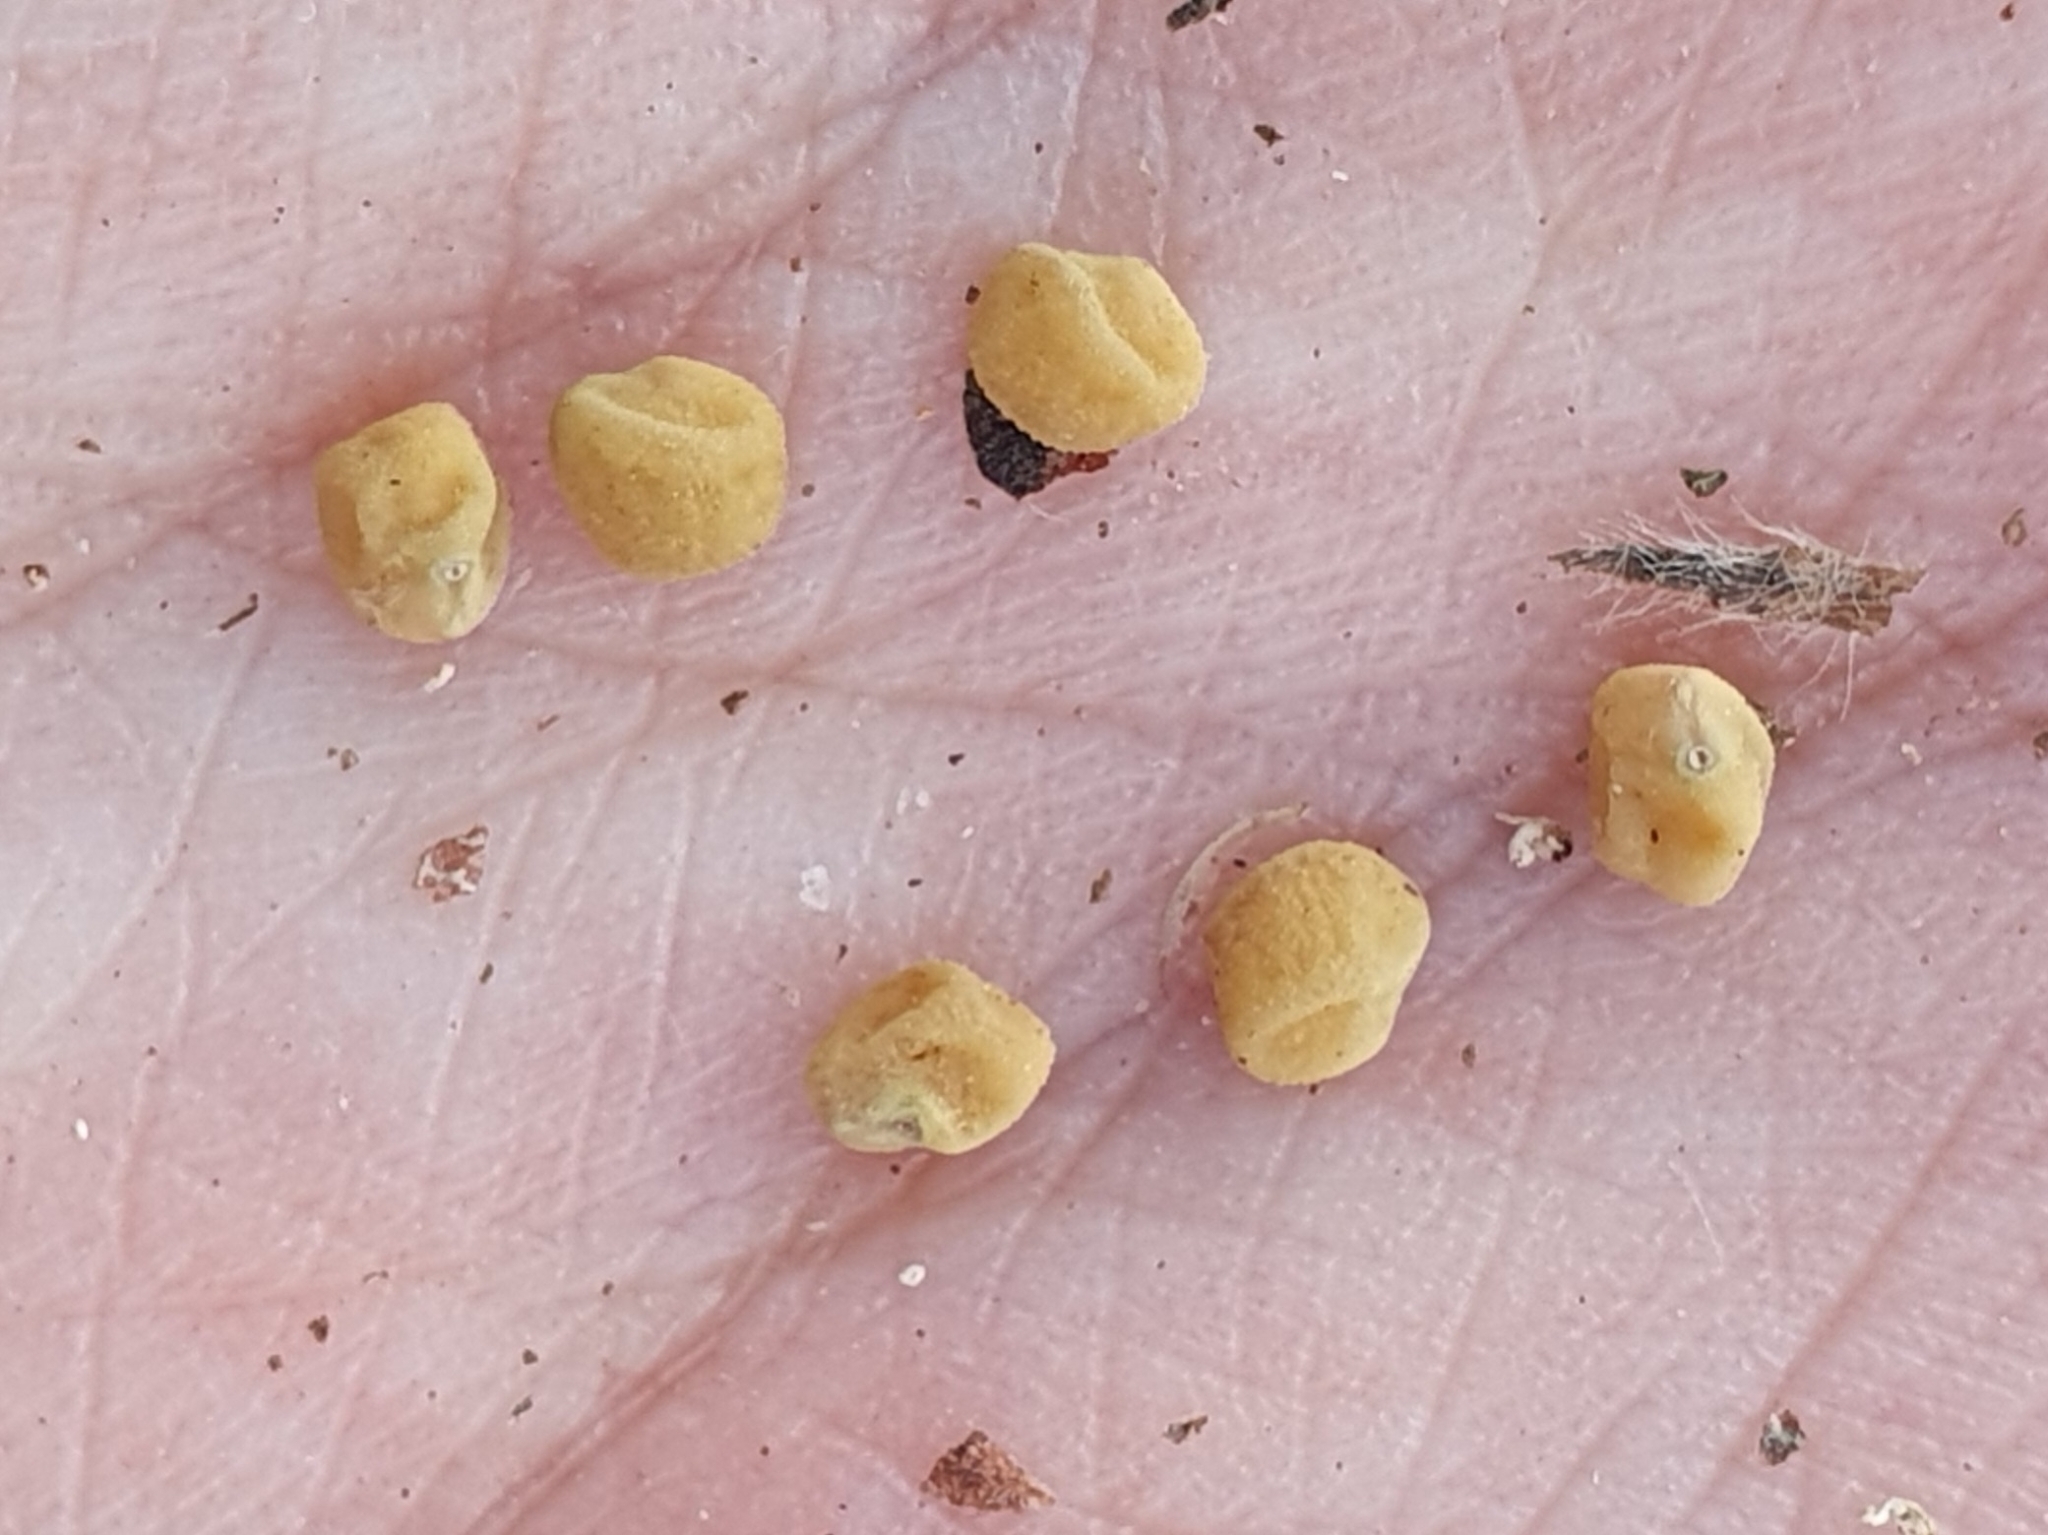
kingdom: Plantae
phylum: Tracheophyta
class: Magnoliopsida
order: Fabales
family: Fabaceae
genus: Lotus
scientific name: Lotus edulis
